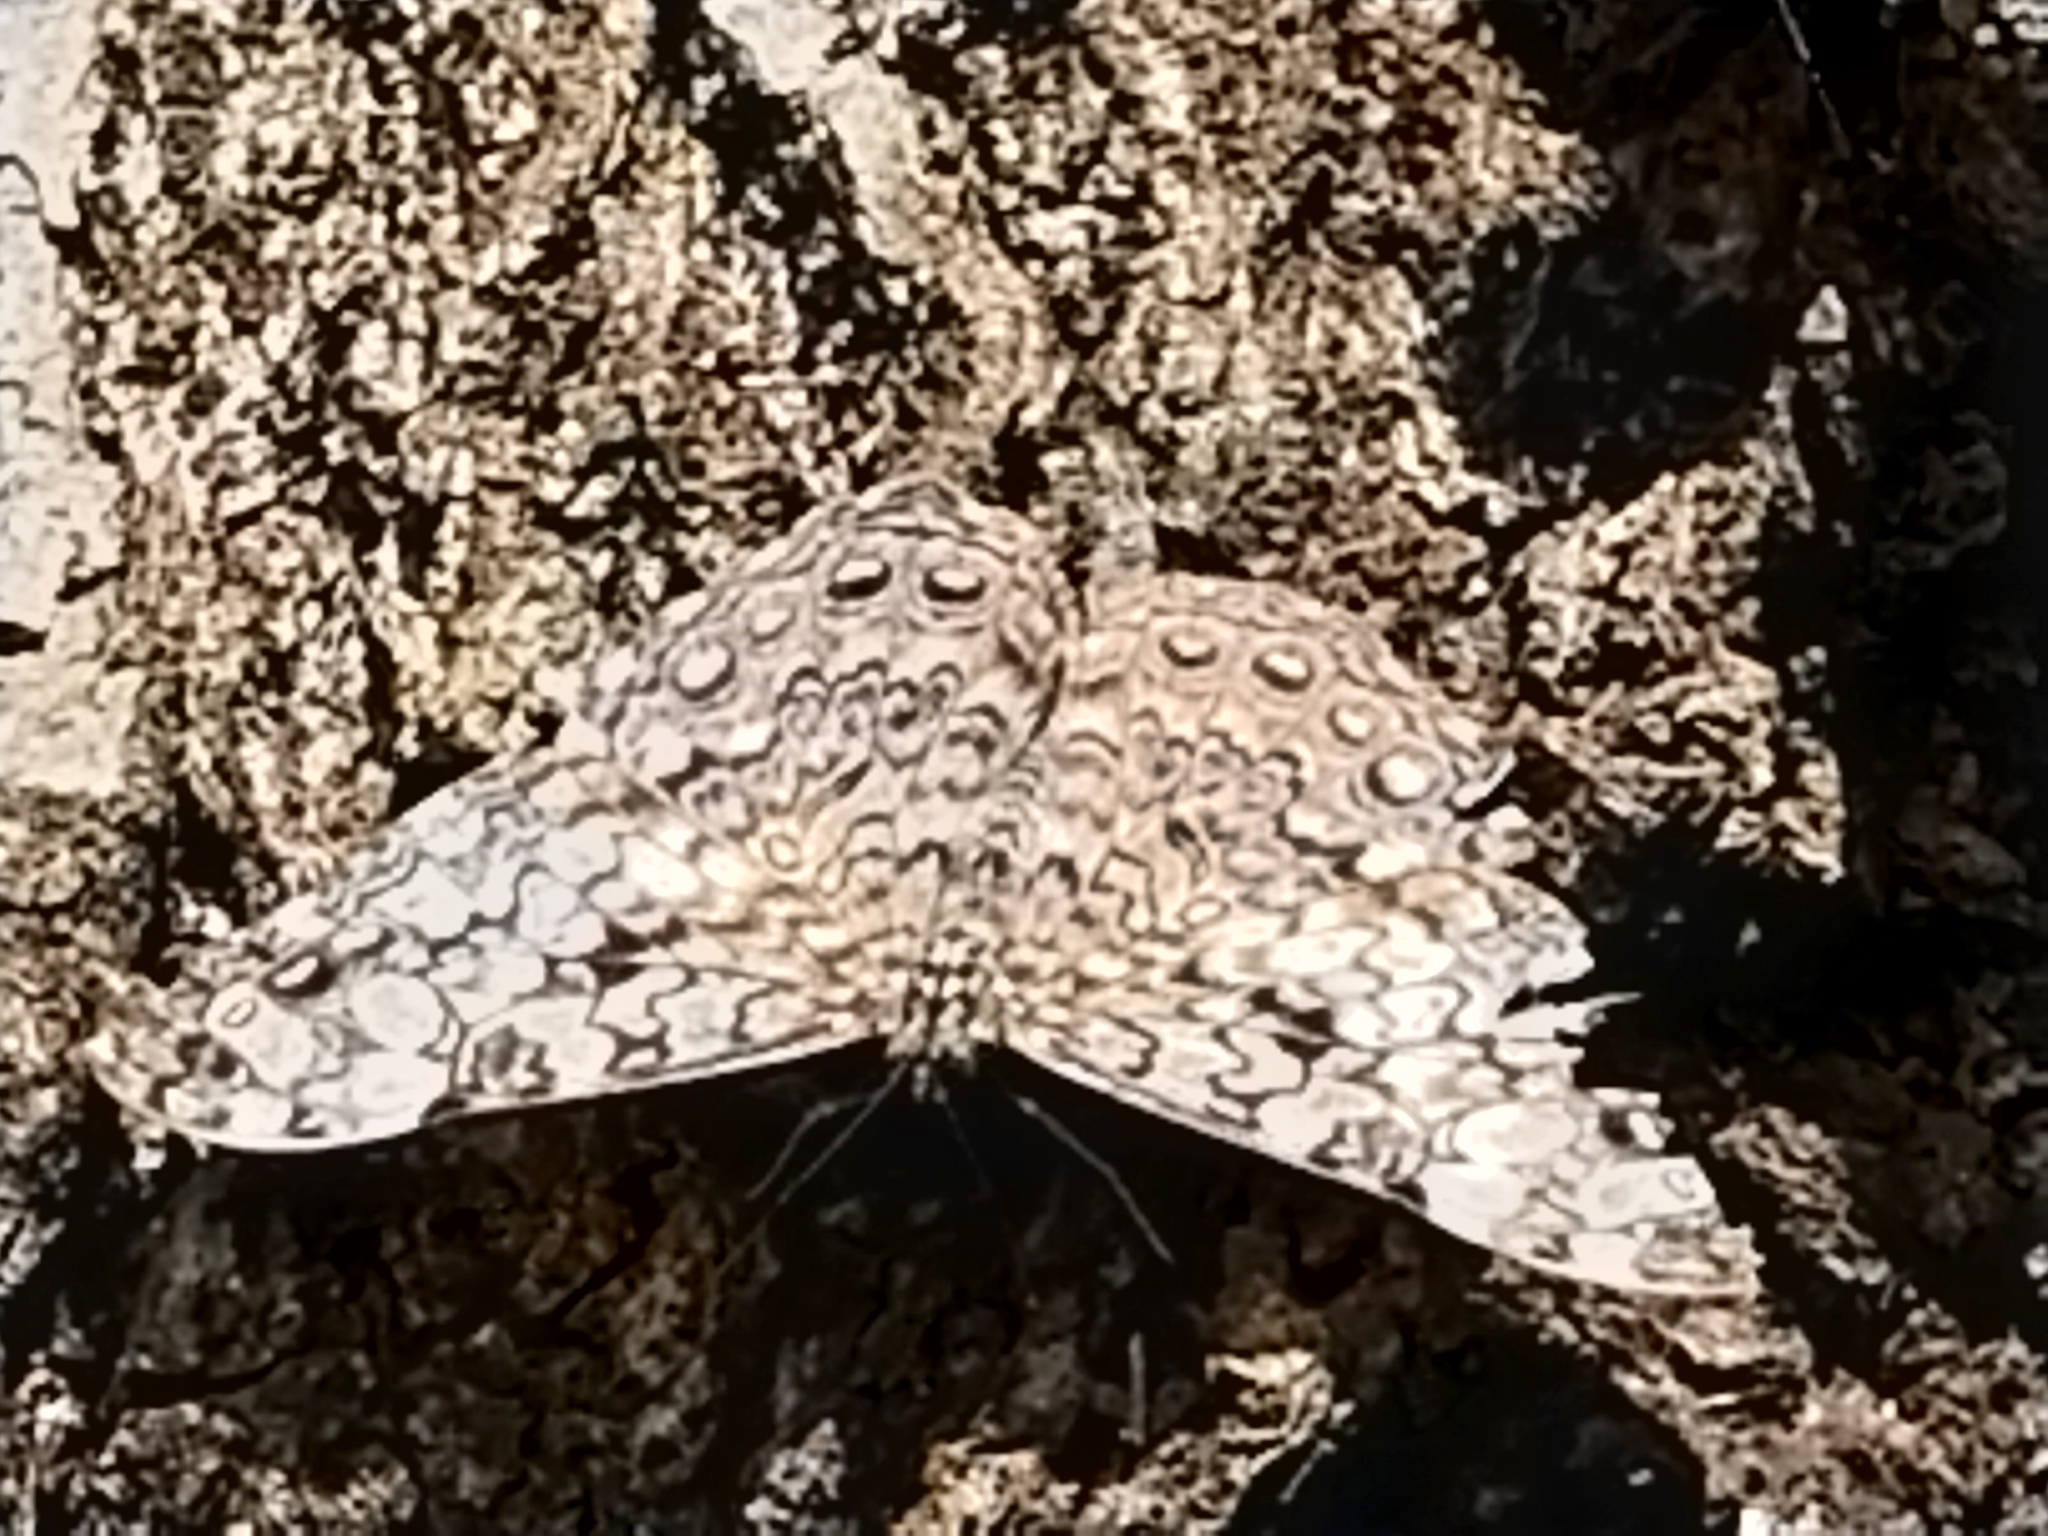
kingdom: Animalia
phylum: Arthropoda
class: Insecta
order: Lepidoptera
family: Nymphalidae
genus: Hamadryas
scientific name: Hamadryas epinome
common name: Epinome cracker
